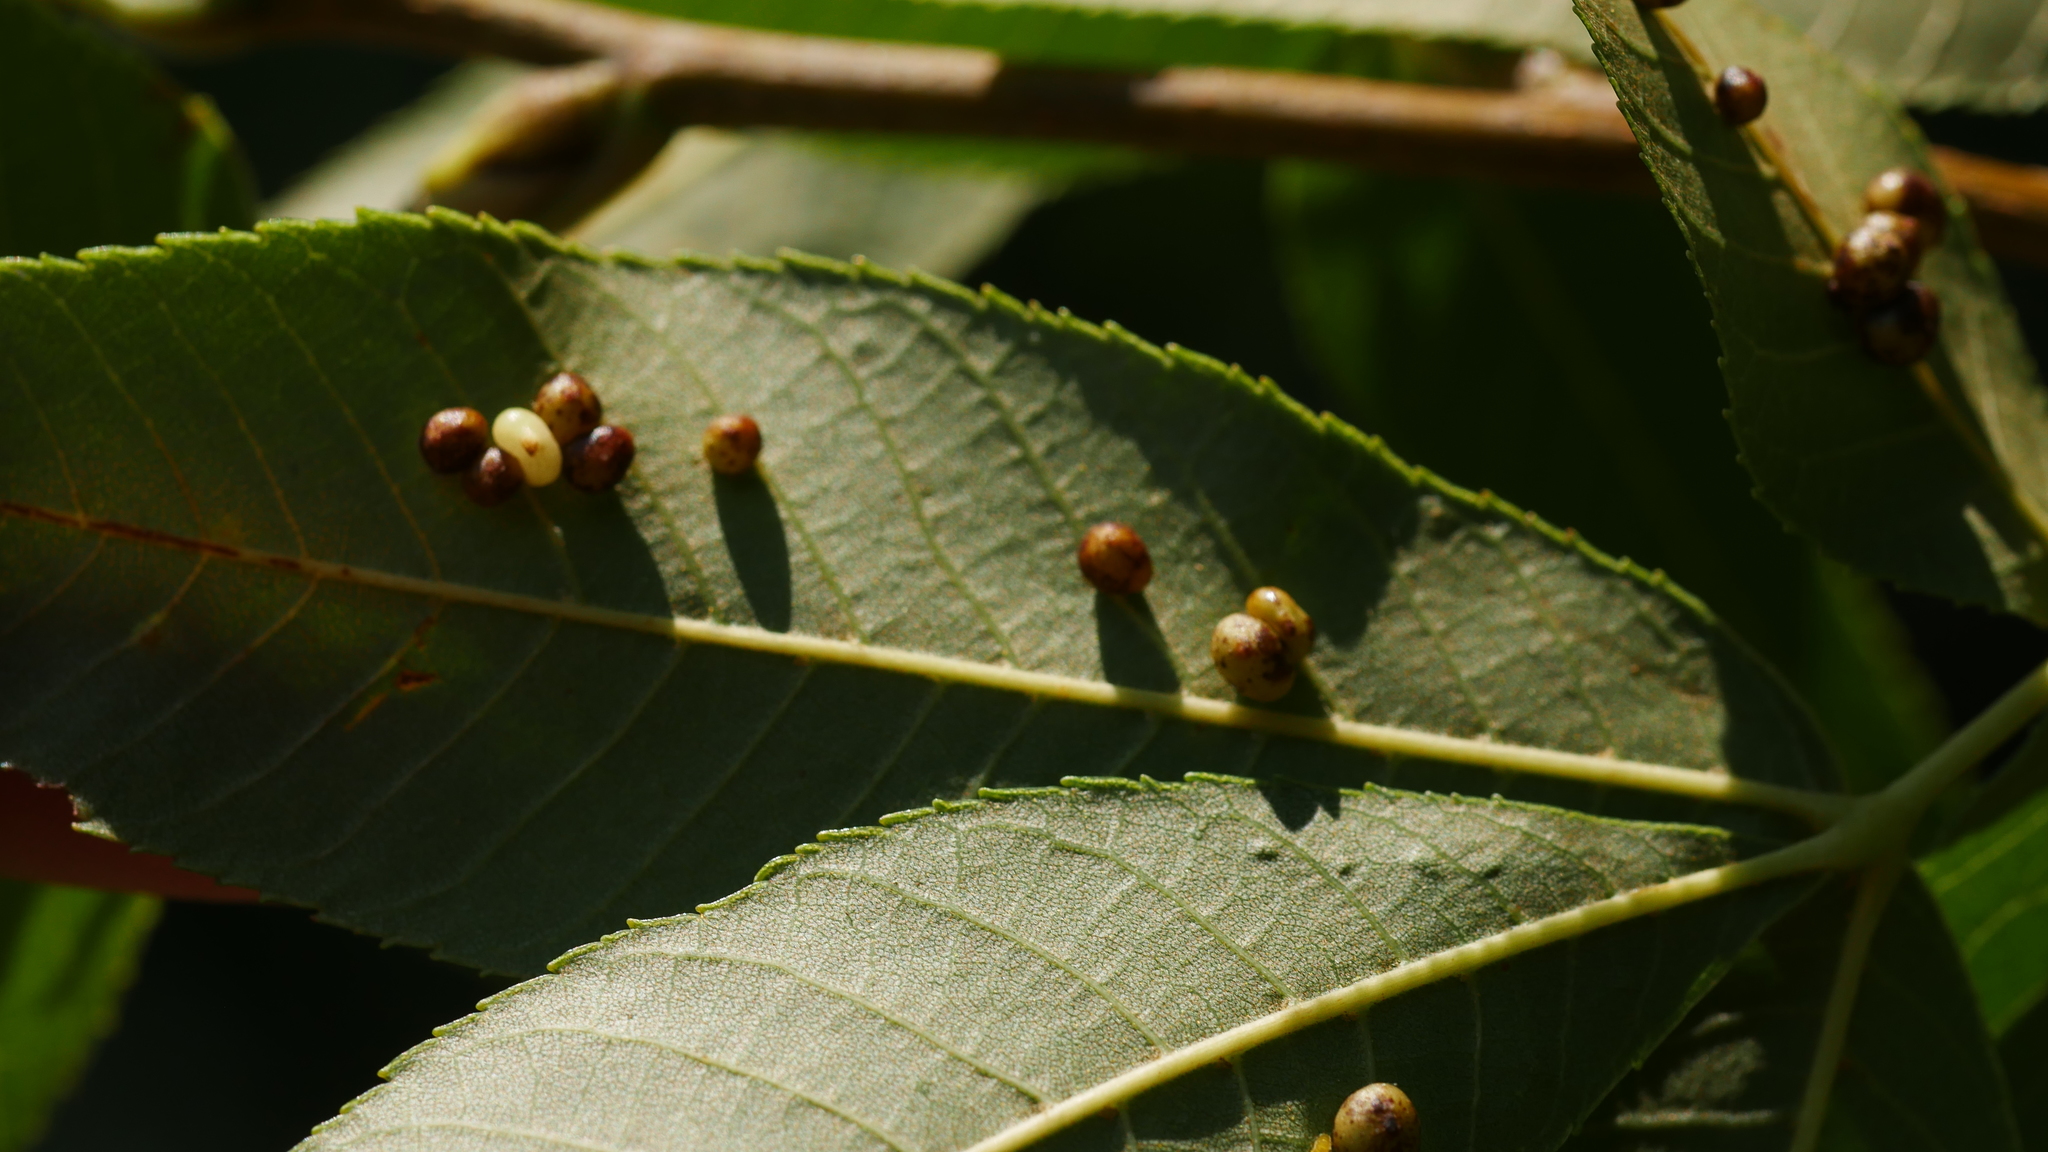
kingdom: Animalia
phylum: Arthropoda
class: Insecta
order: Diptera
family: Cecidomyiidae
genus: Caryomyia
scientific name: Caryomyia caryae
